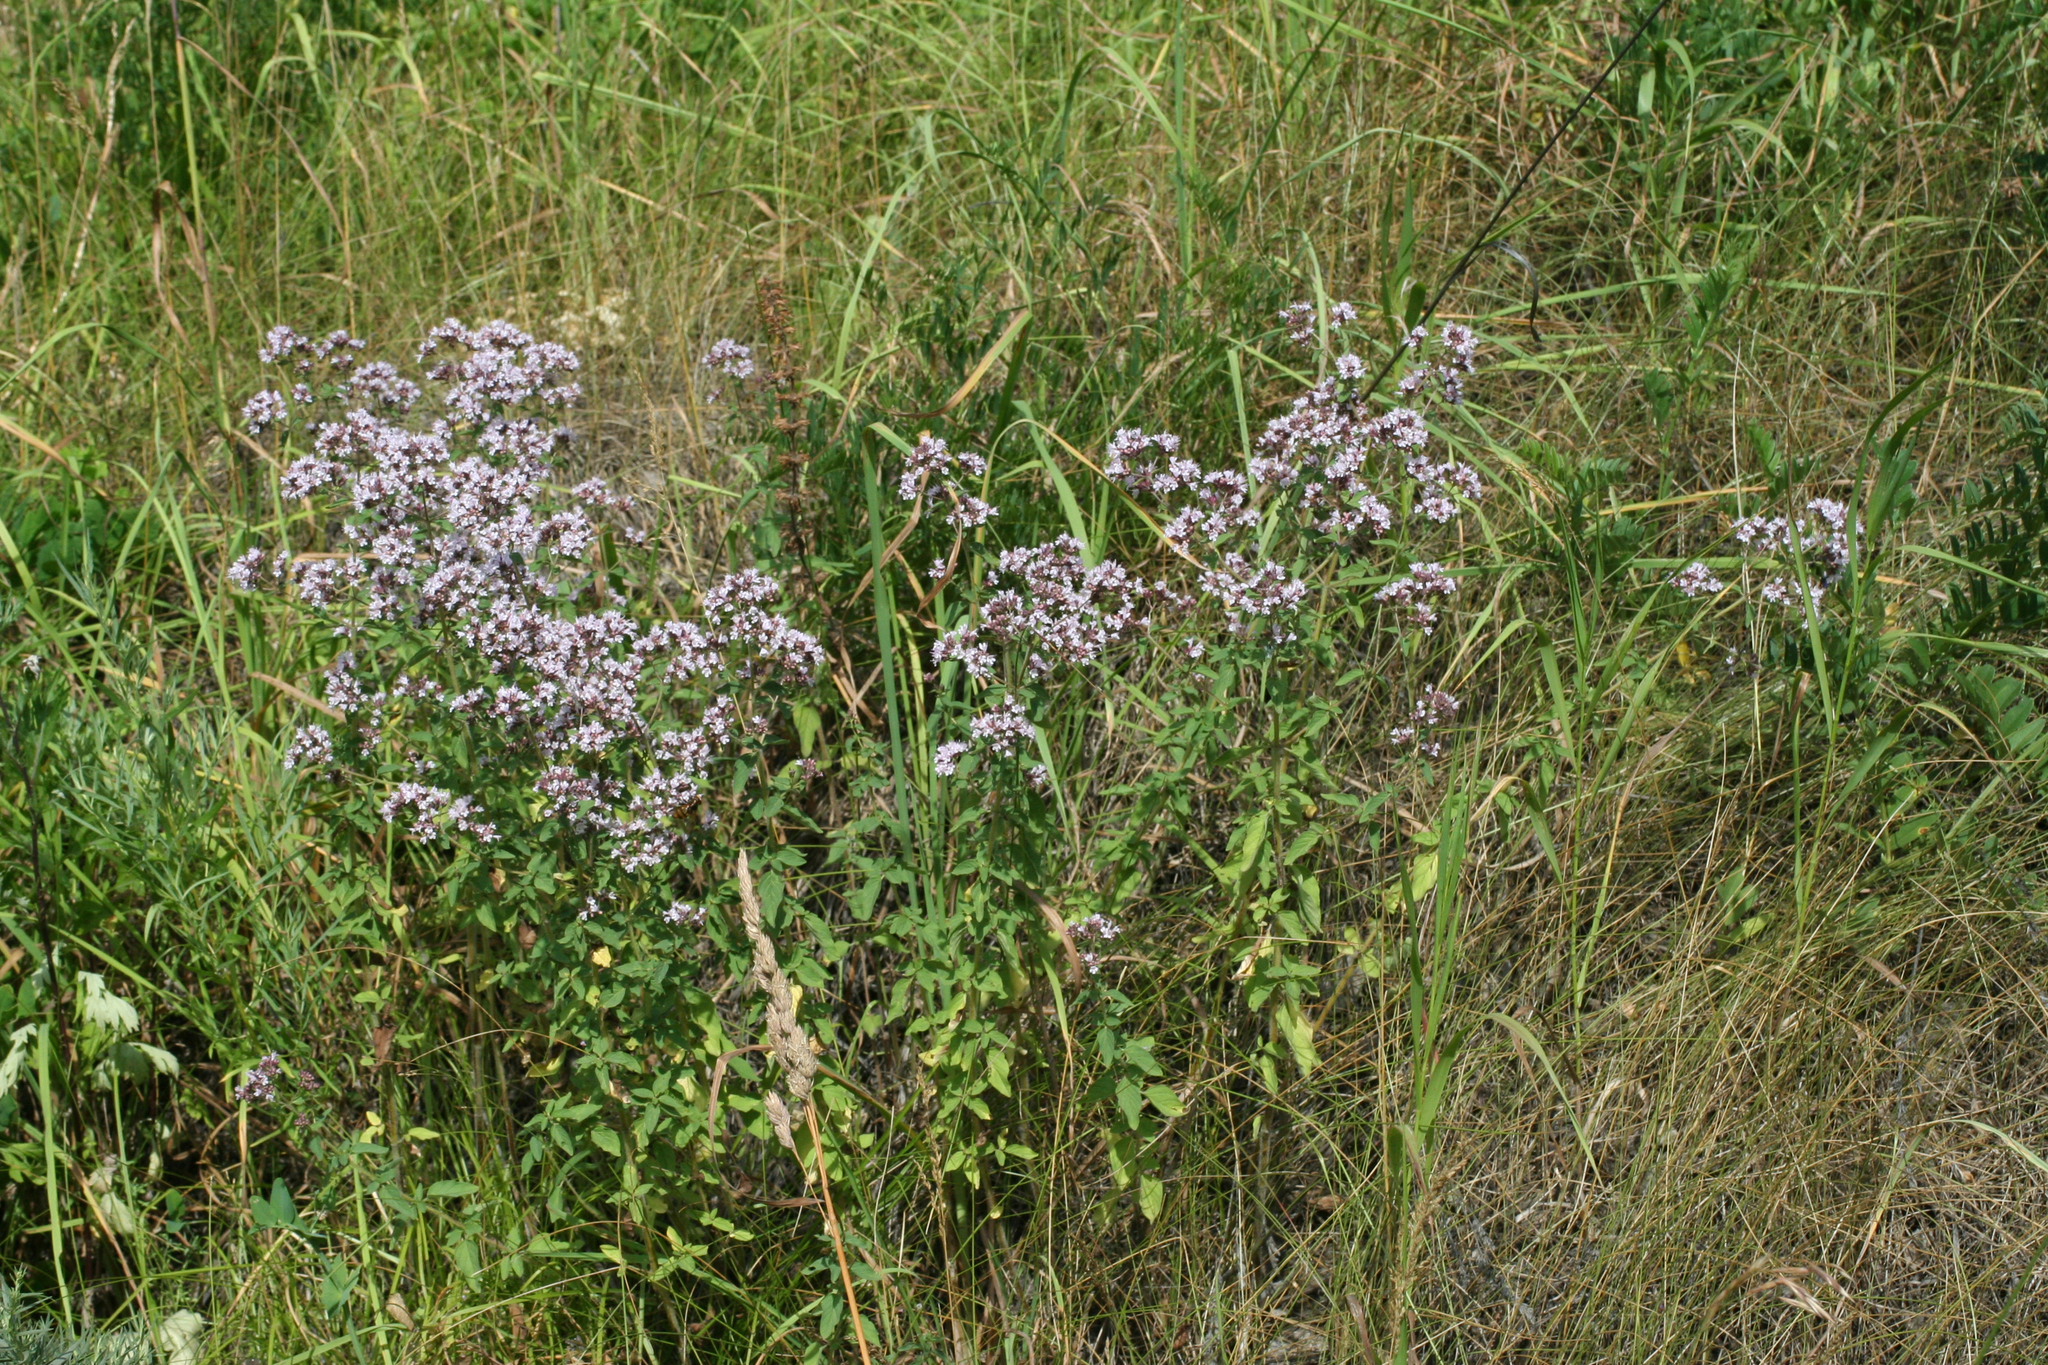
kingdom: Plantae
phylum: Tracheophyta
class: Magnoliopsida
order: Lamiales
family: Lamiaceae
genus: Origanum
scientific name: Origanum vulgare
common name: Wild marjoram
